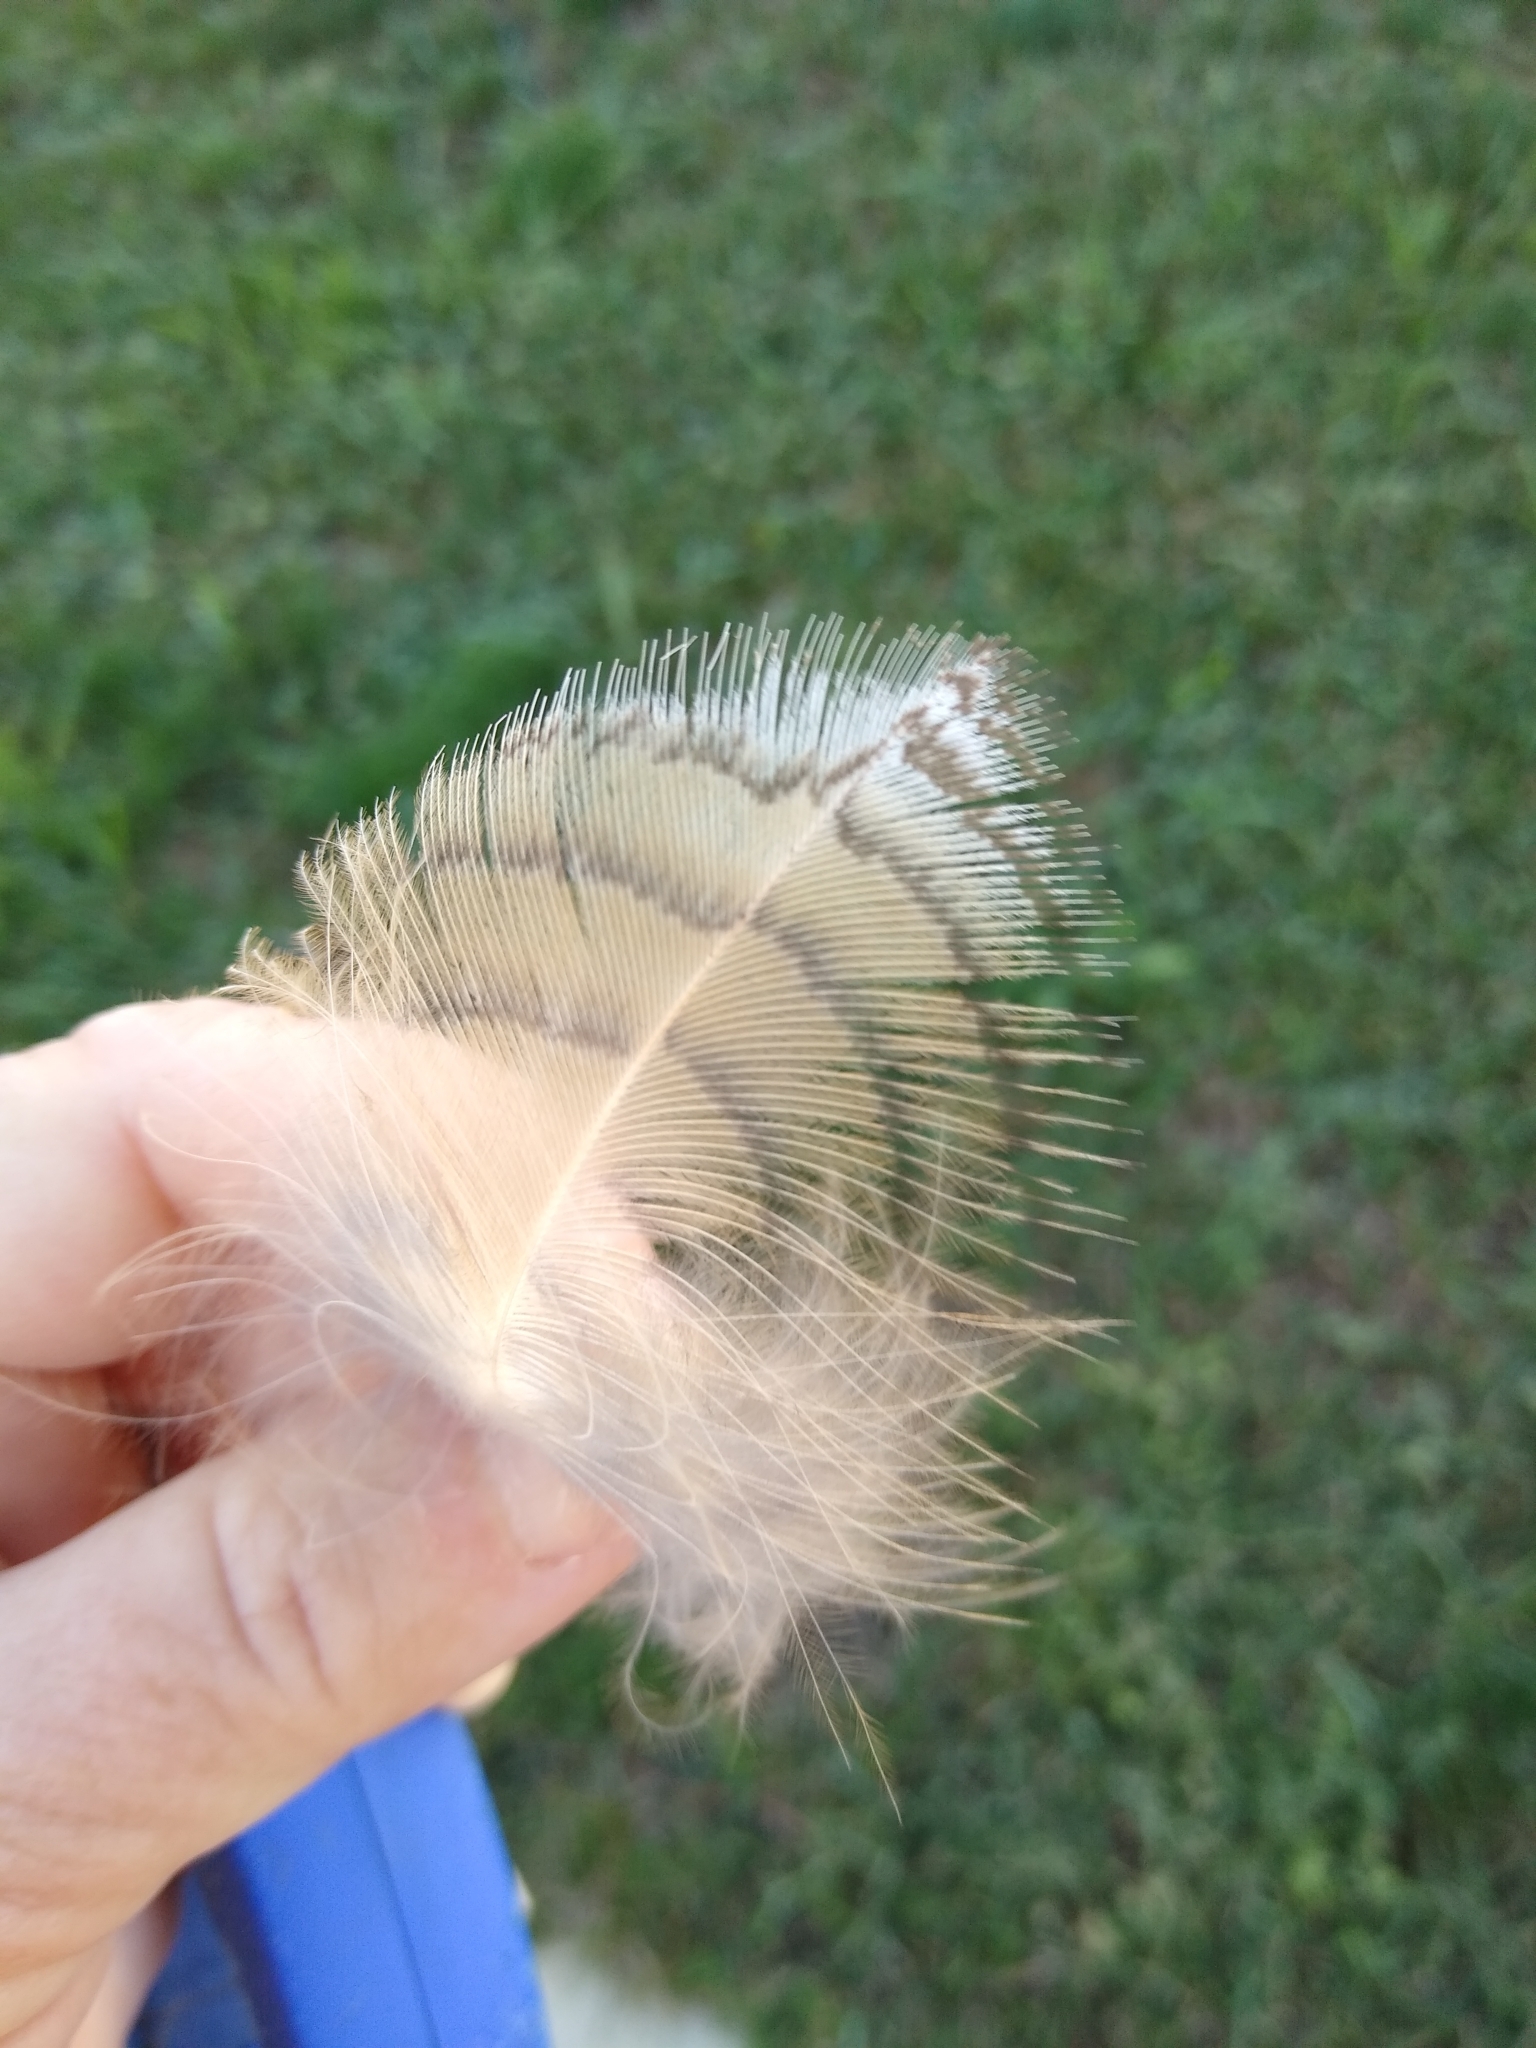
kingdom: Animalia
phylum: Chordata
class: Aves
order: Strigiformes
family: Strigidae
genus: Bubo
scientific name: Bubo virginianus
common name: Great horned owl
